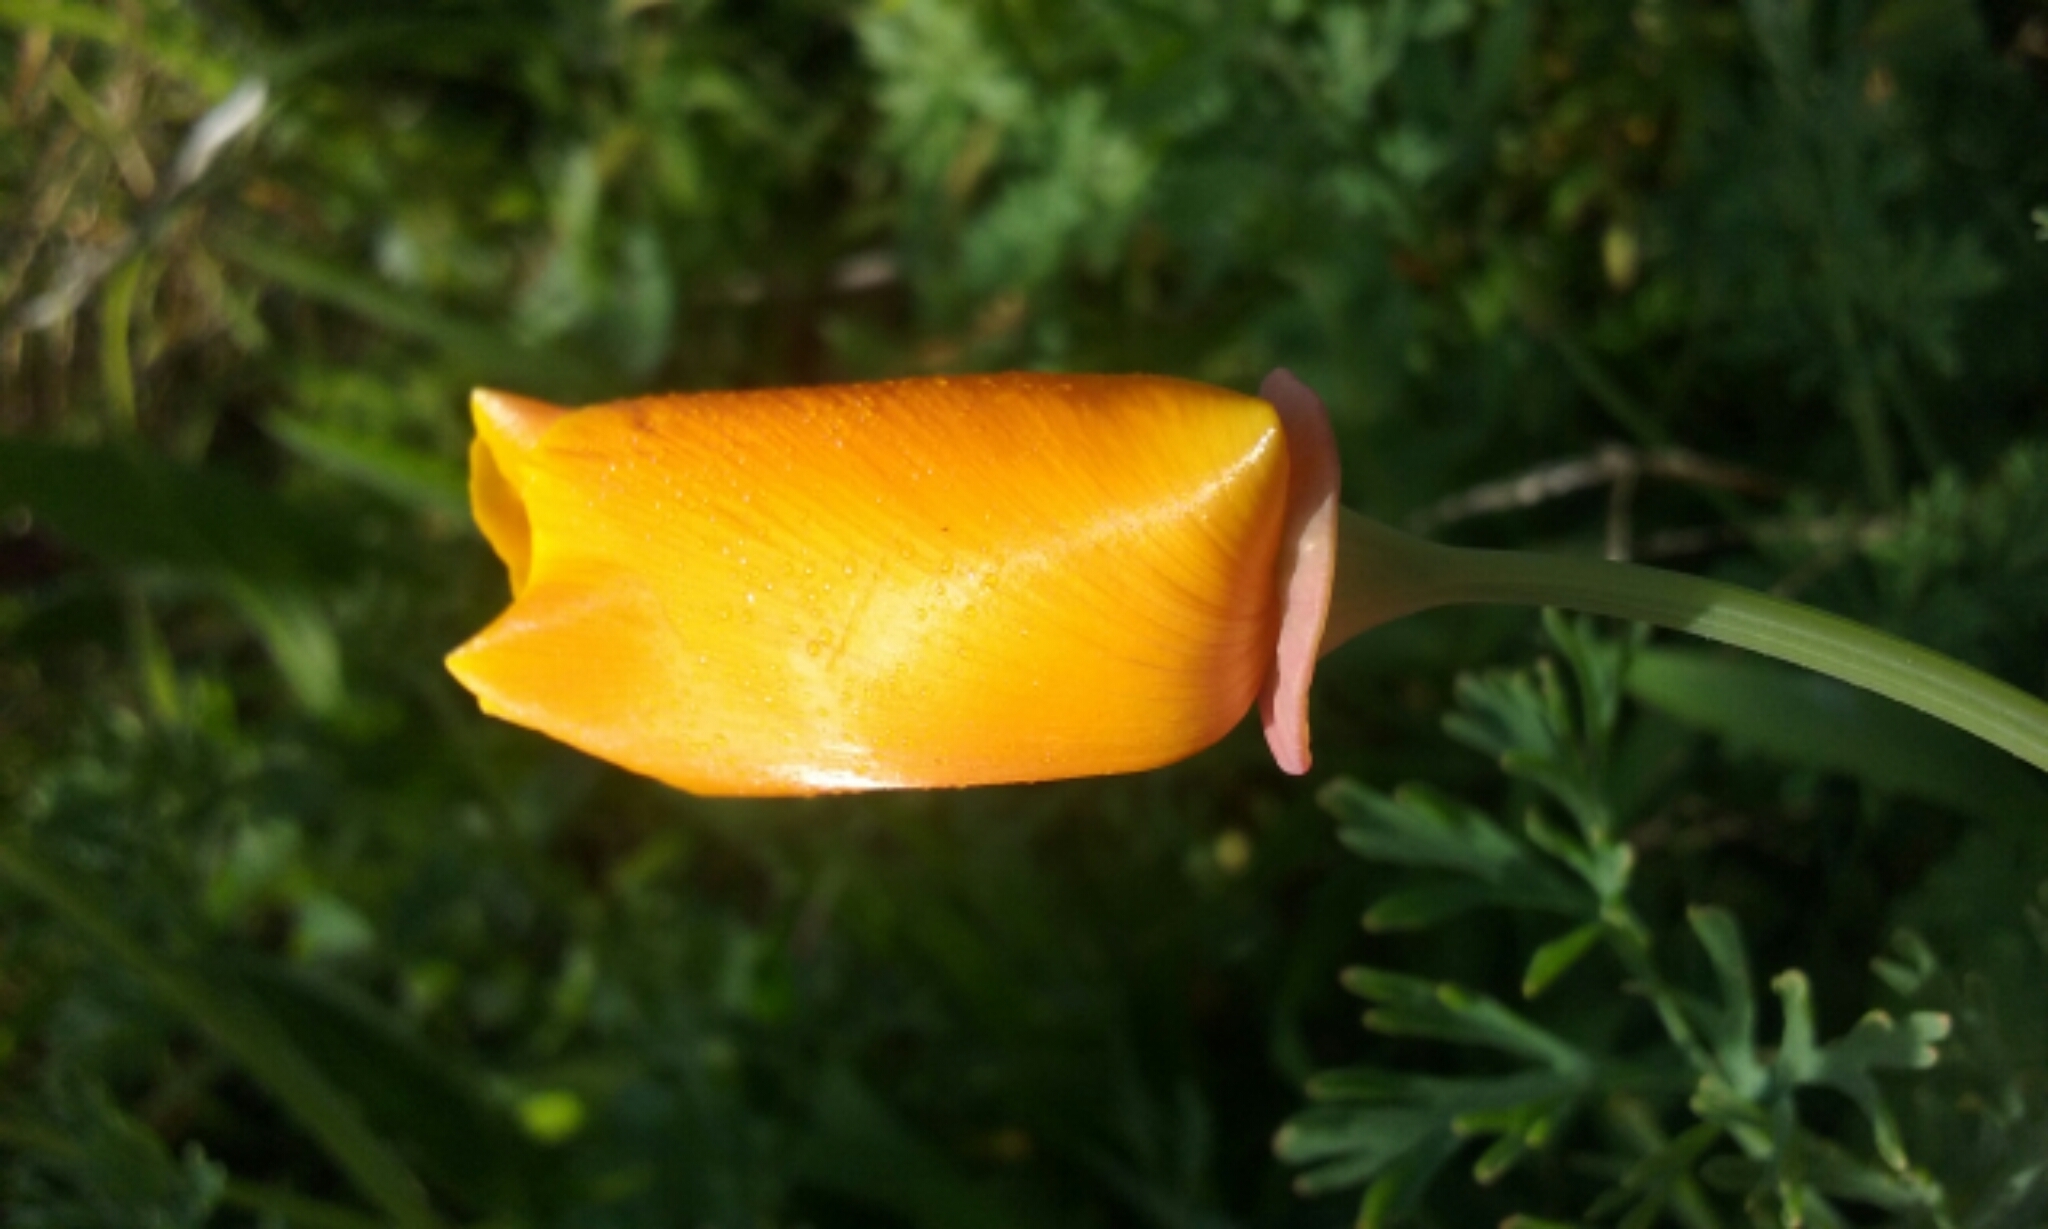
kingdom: Plantae
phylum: Tracheophyta
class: Magnoliopsida
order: Ranunculales
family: Papaveraceae
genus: Eschscholzia
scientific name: Eschscholzia californica
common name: California poppy
